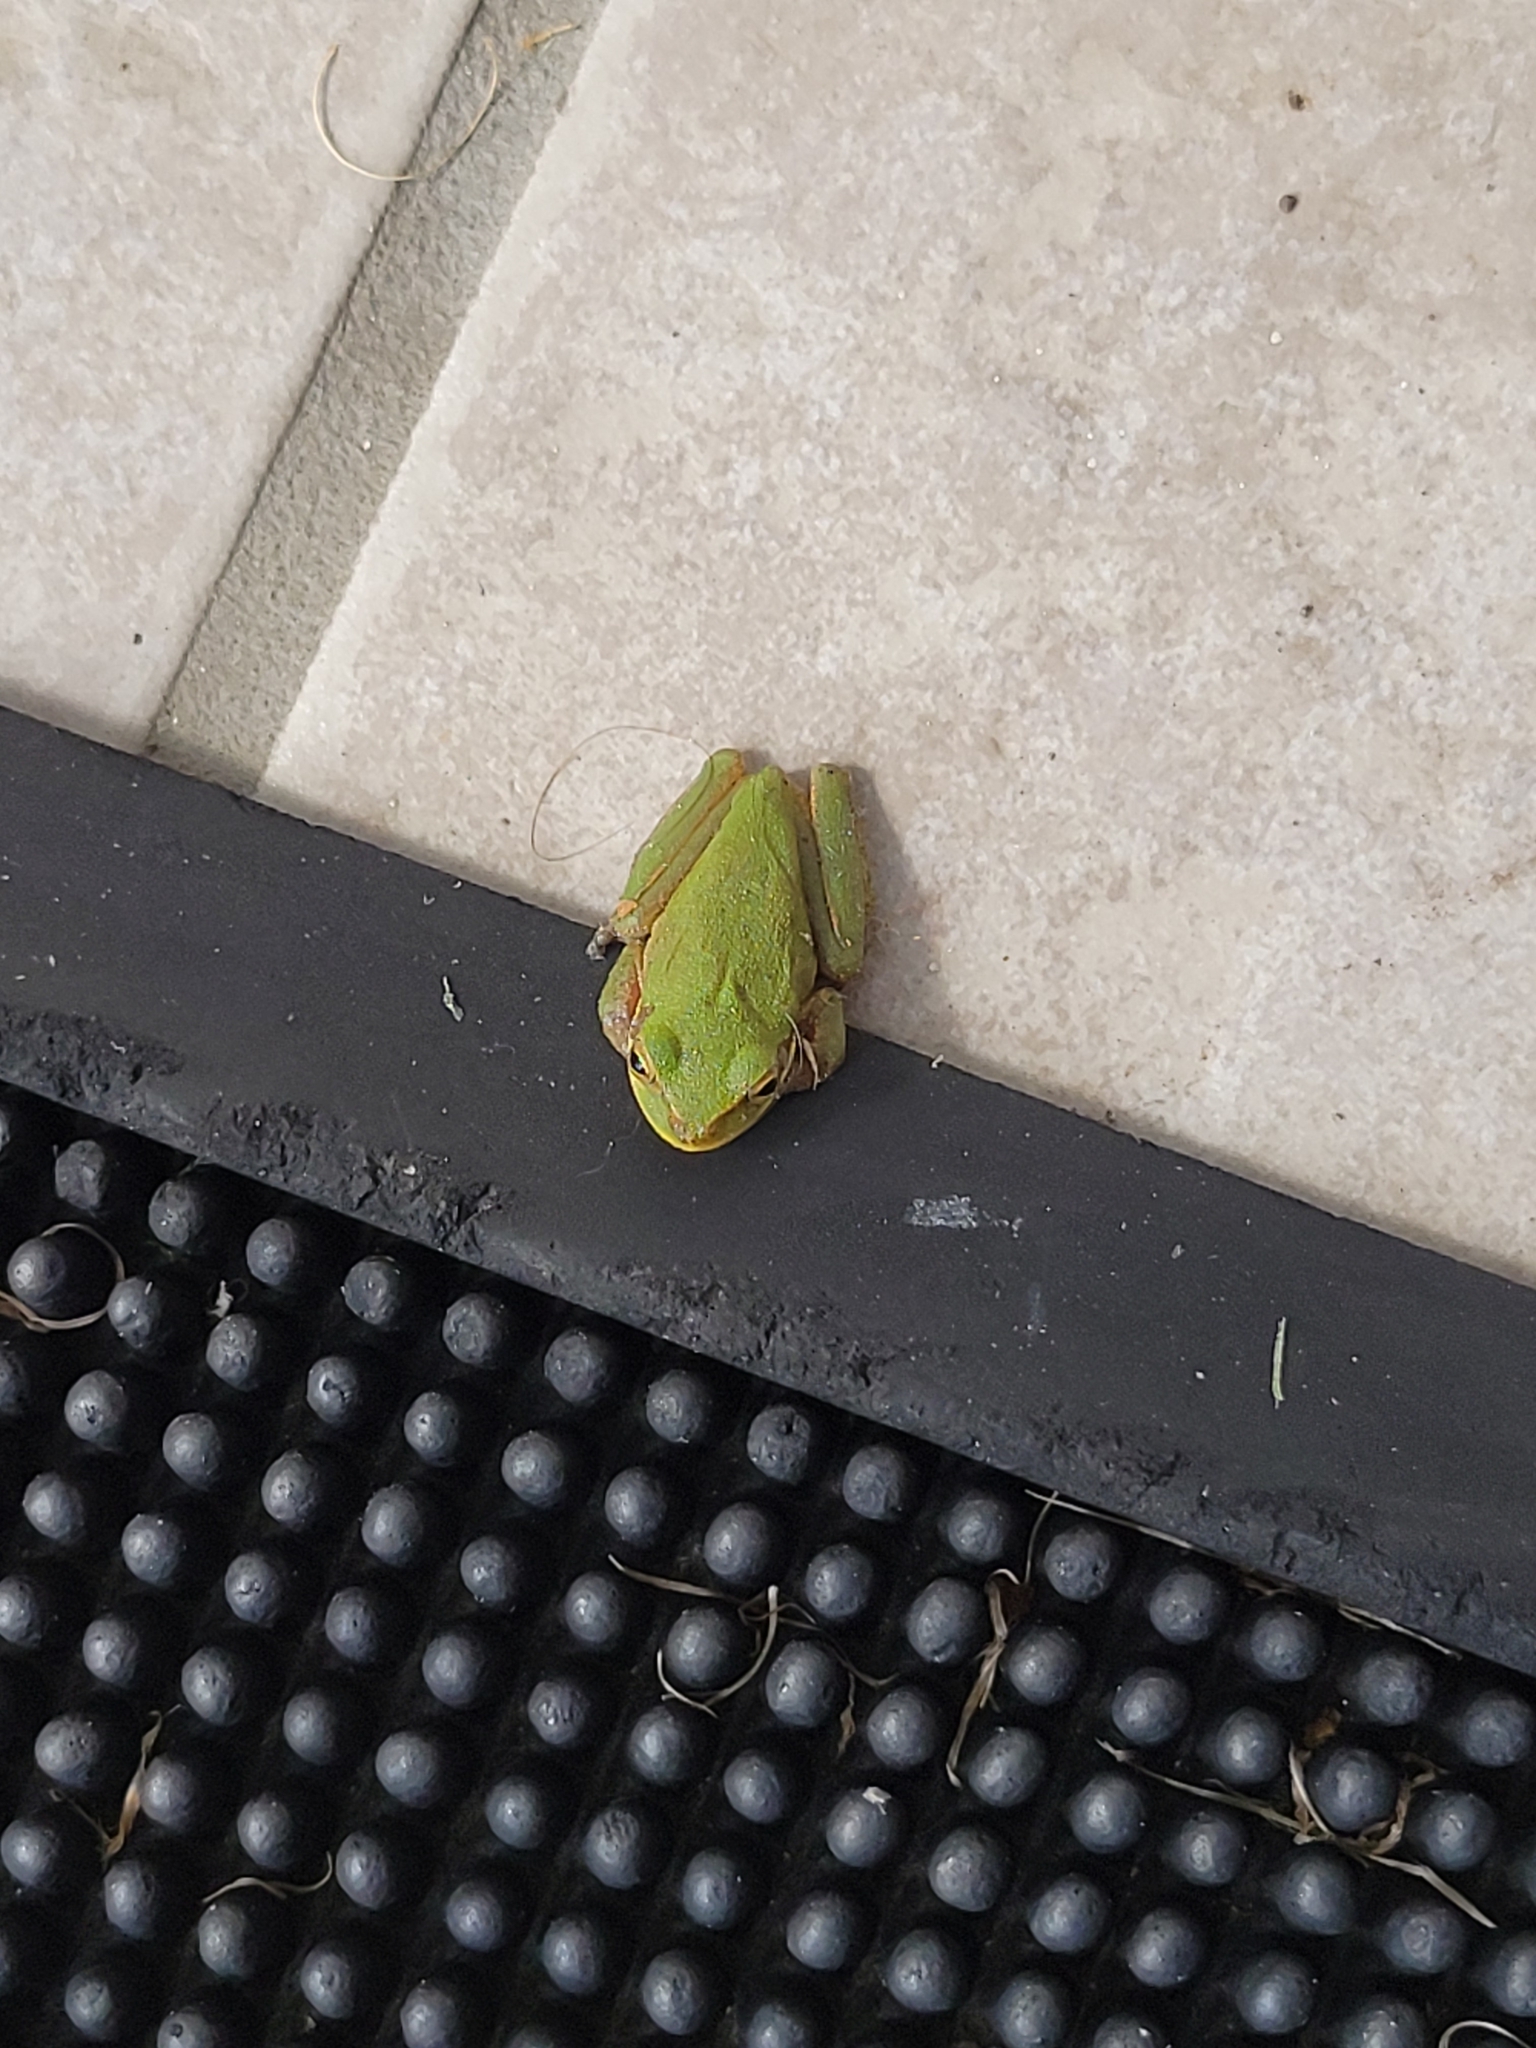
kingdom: Animalia
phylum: Chordata
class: Amphibia
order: Anura
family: Hylidae
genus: Dryophytes
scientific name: Dryophytes squirellus
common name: Squirrel treefrog
